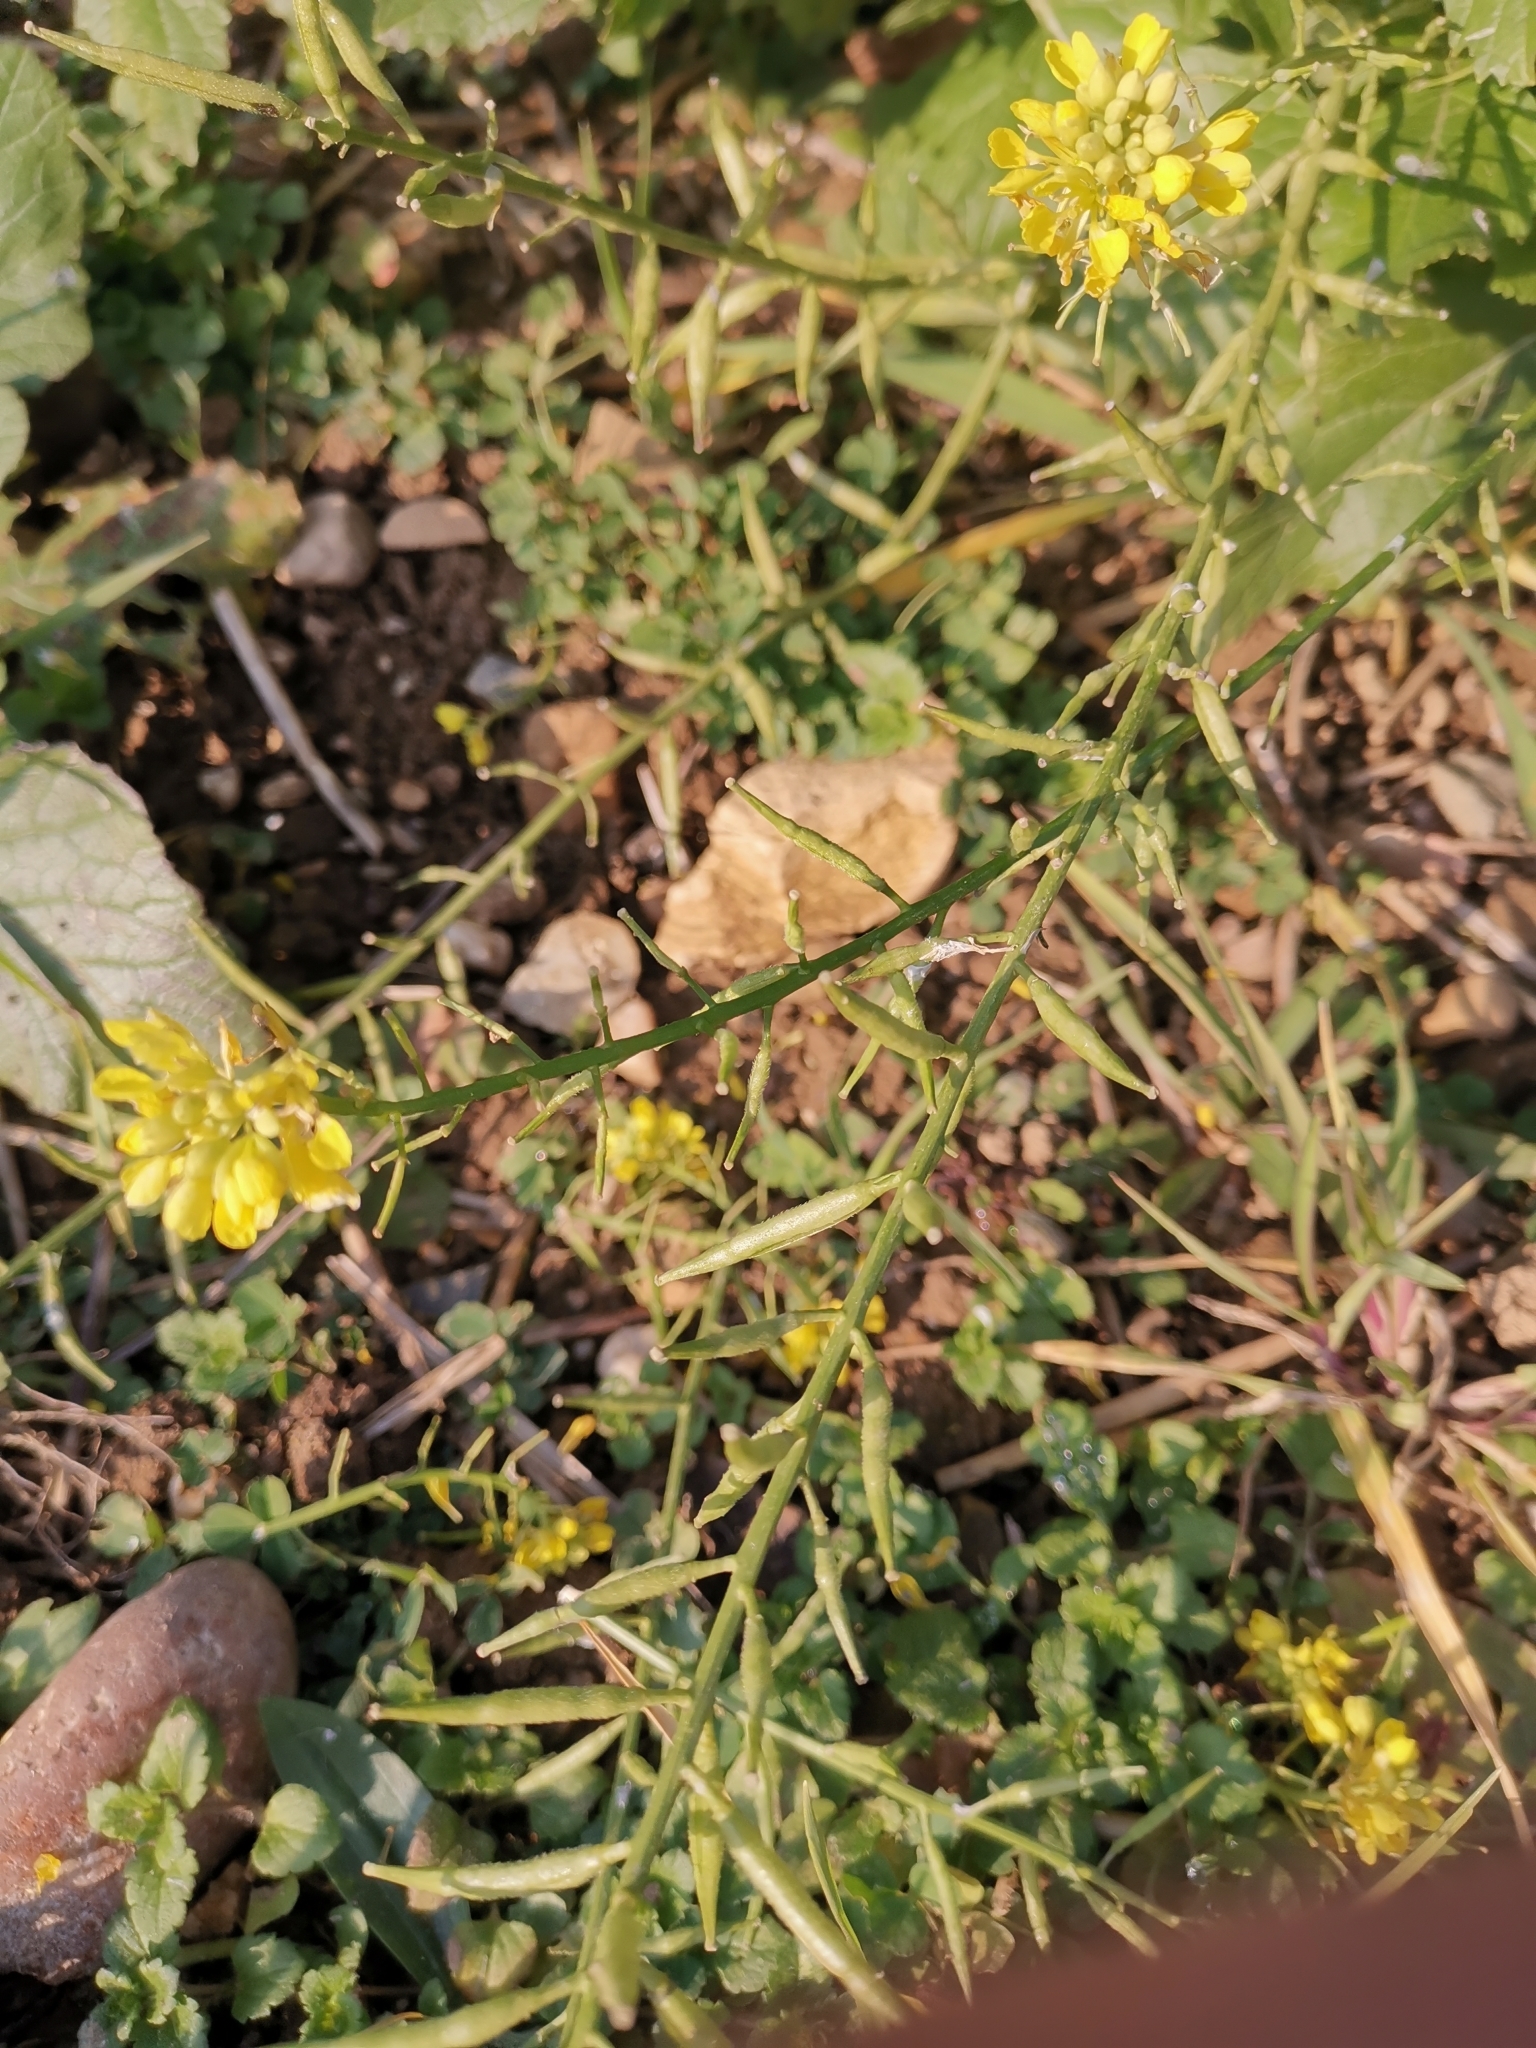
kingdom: Plantae
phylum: Tracheophyta
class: Magnoliopsida
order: Brassicales
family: Brassicaceae
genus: Sinapis
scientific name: Sinapis arvensis
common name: Charlock
